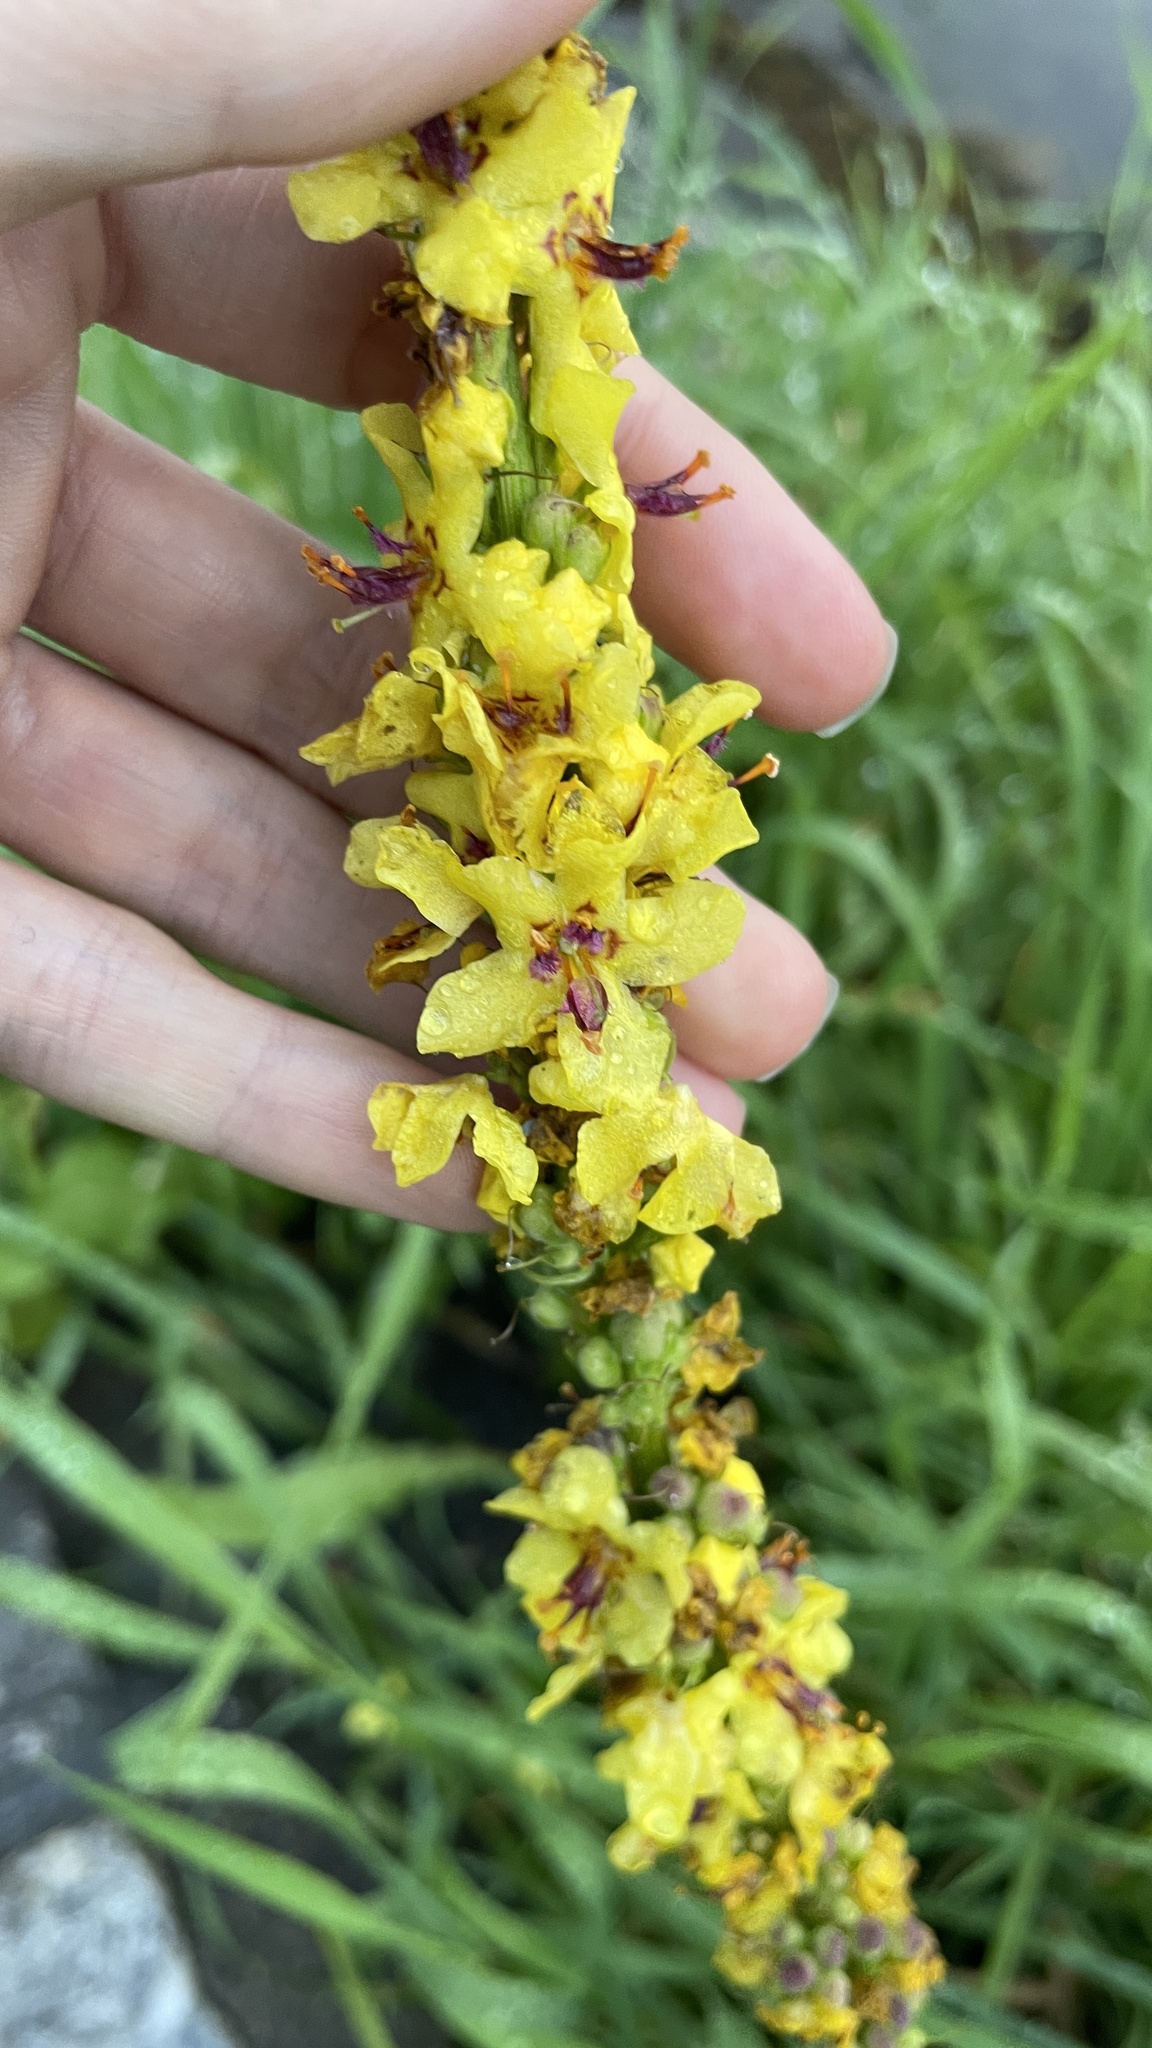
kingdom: Plantae
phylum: Tracheophyta
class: Magnoliopsida
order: Lamiales
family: Scrophulariaceae
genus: Verbascum
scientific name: Verbascum nigrum
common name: Dark mullein
